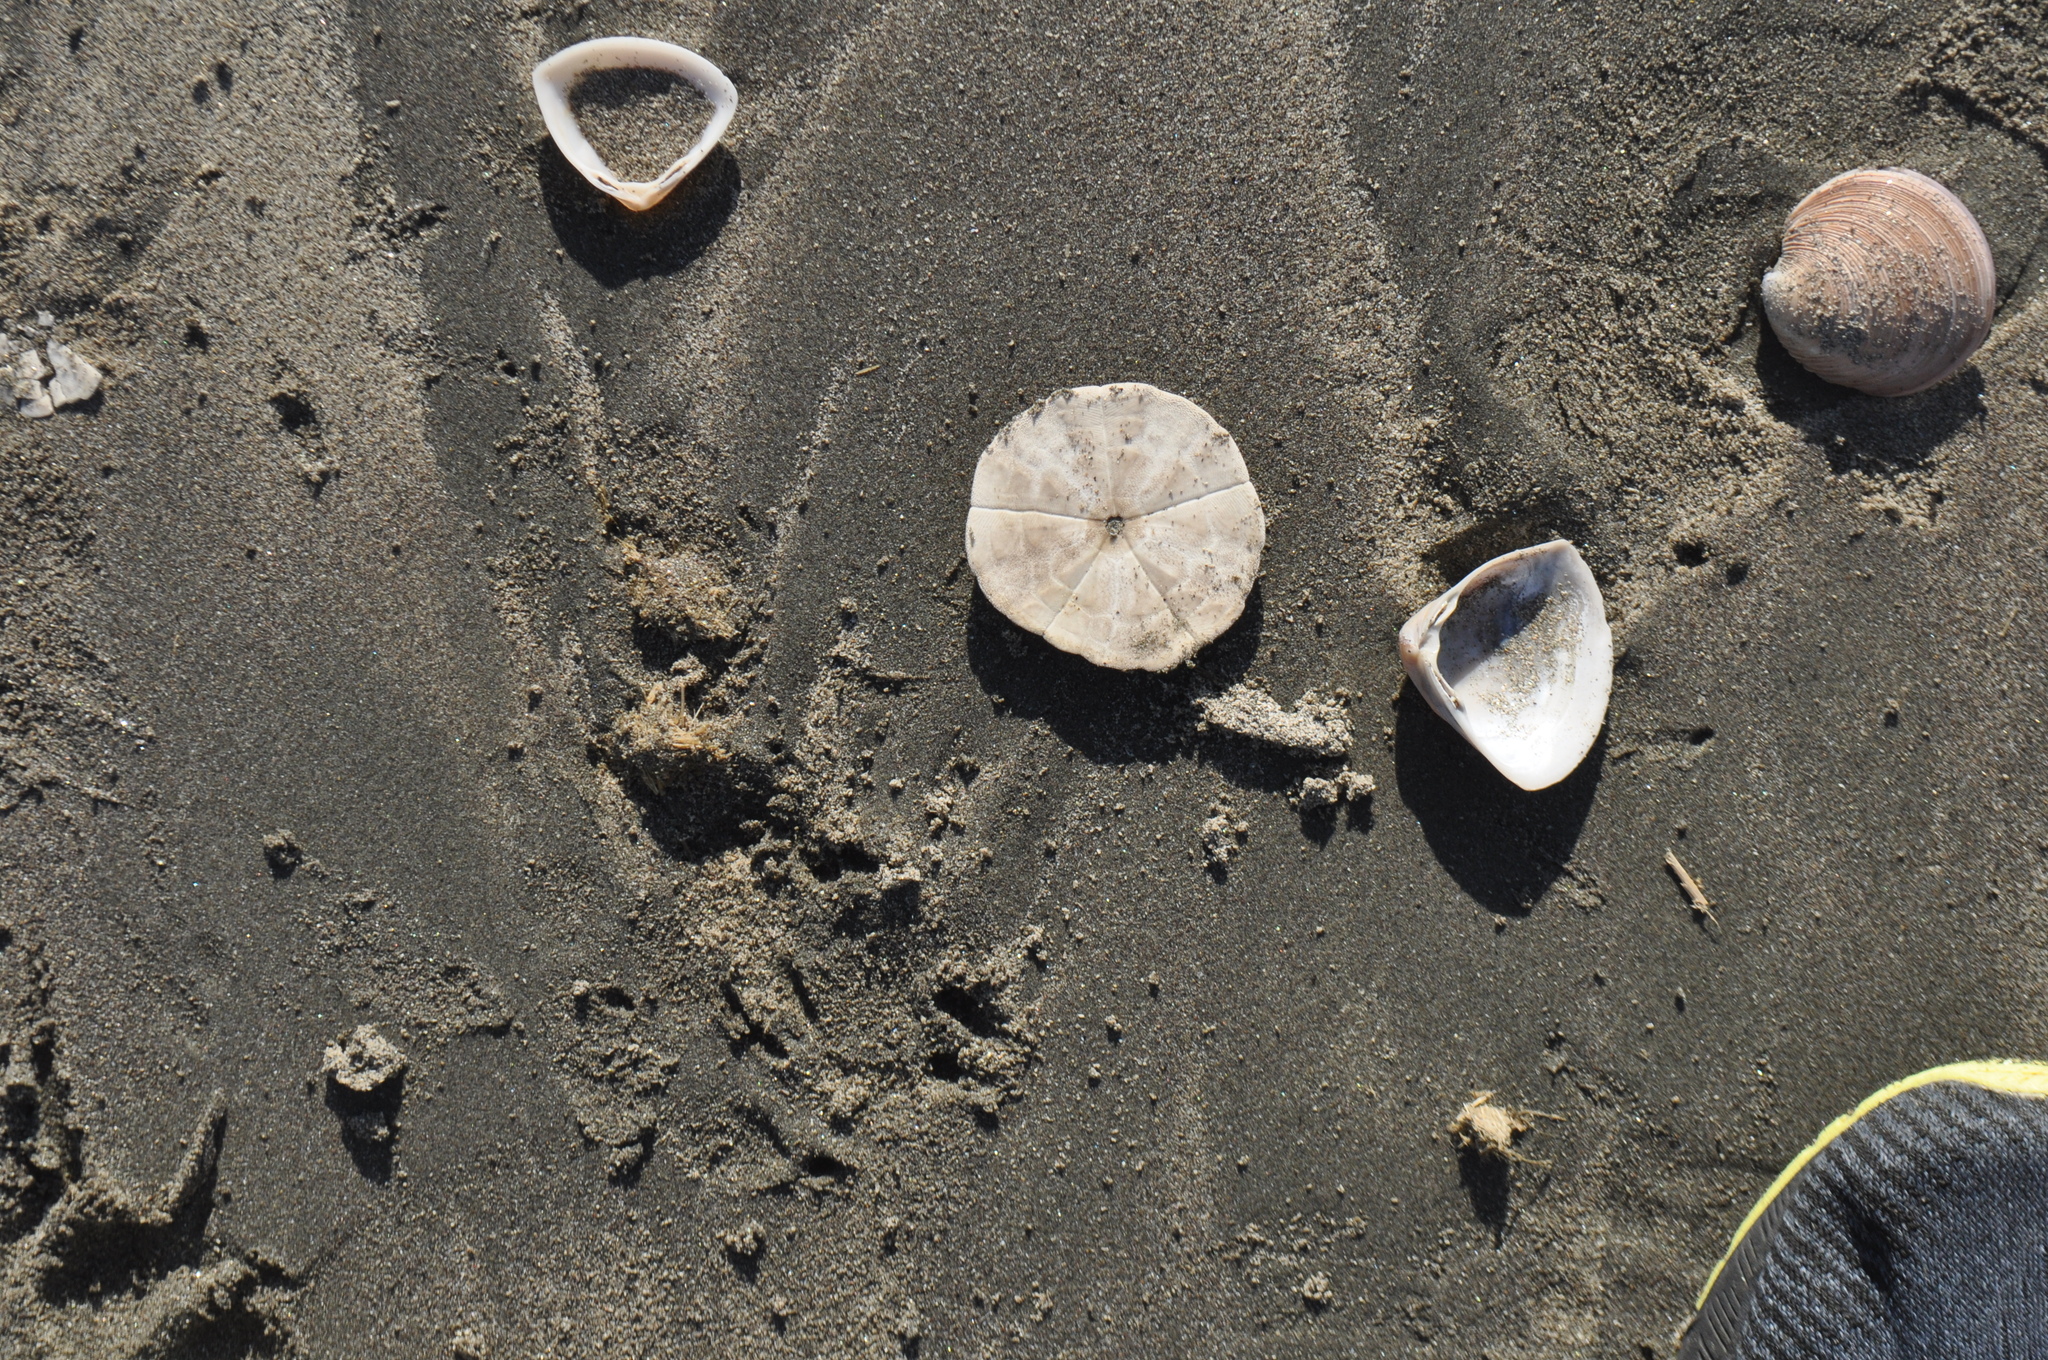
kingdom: Animalia
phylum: Echinodermata
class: Echinoidea
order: Clypeasteroida
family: Clypeasteridae
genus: Fellaster
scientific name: Fellaster zelandiae
